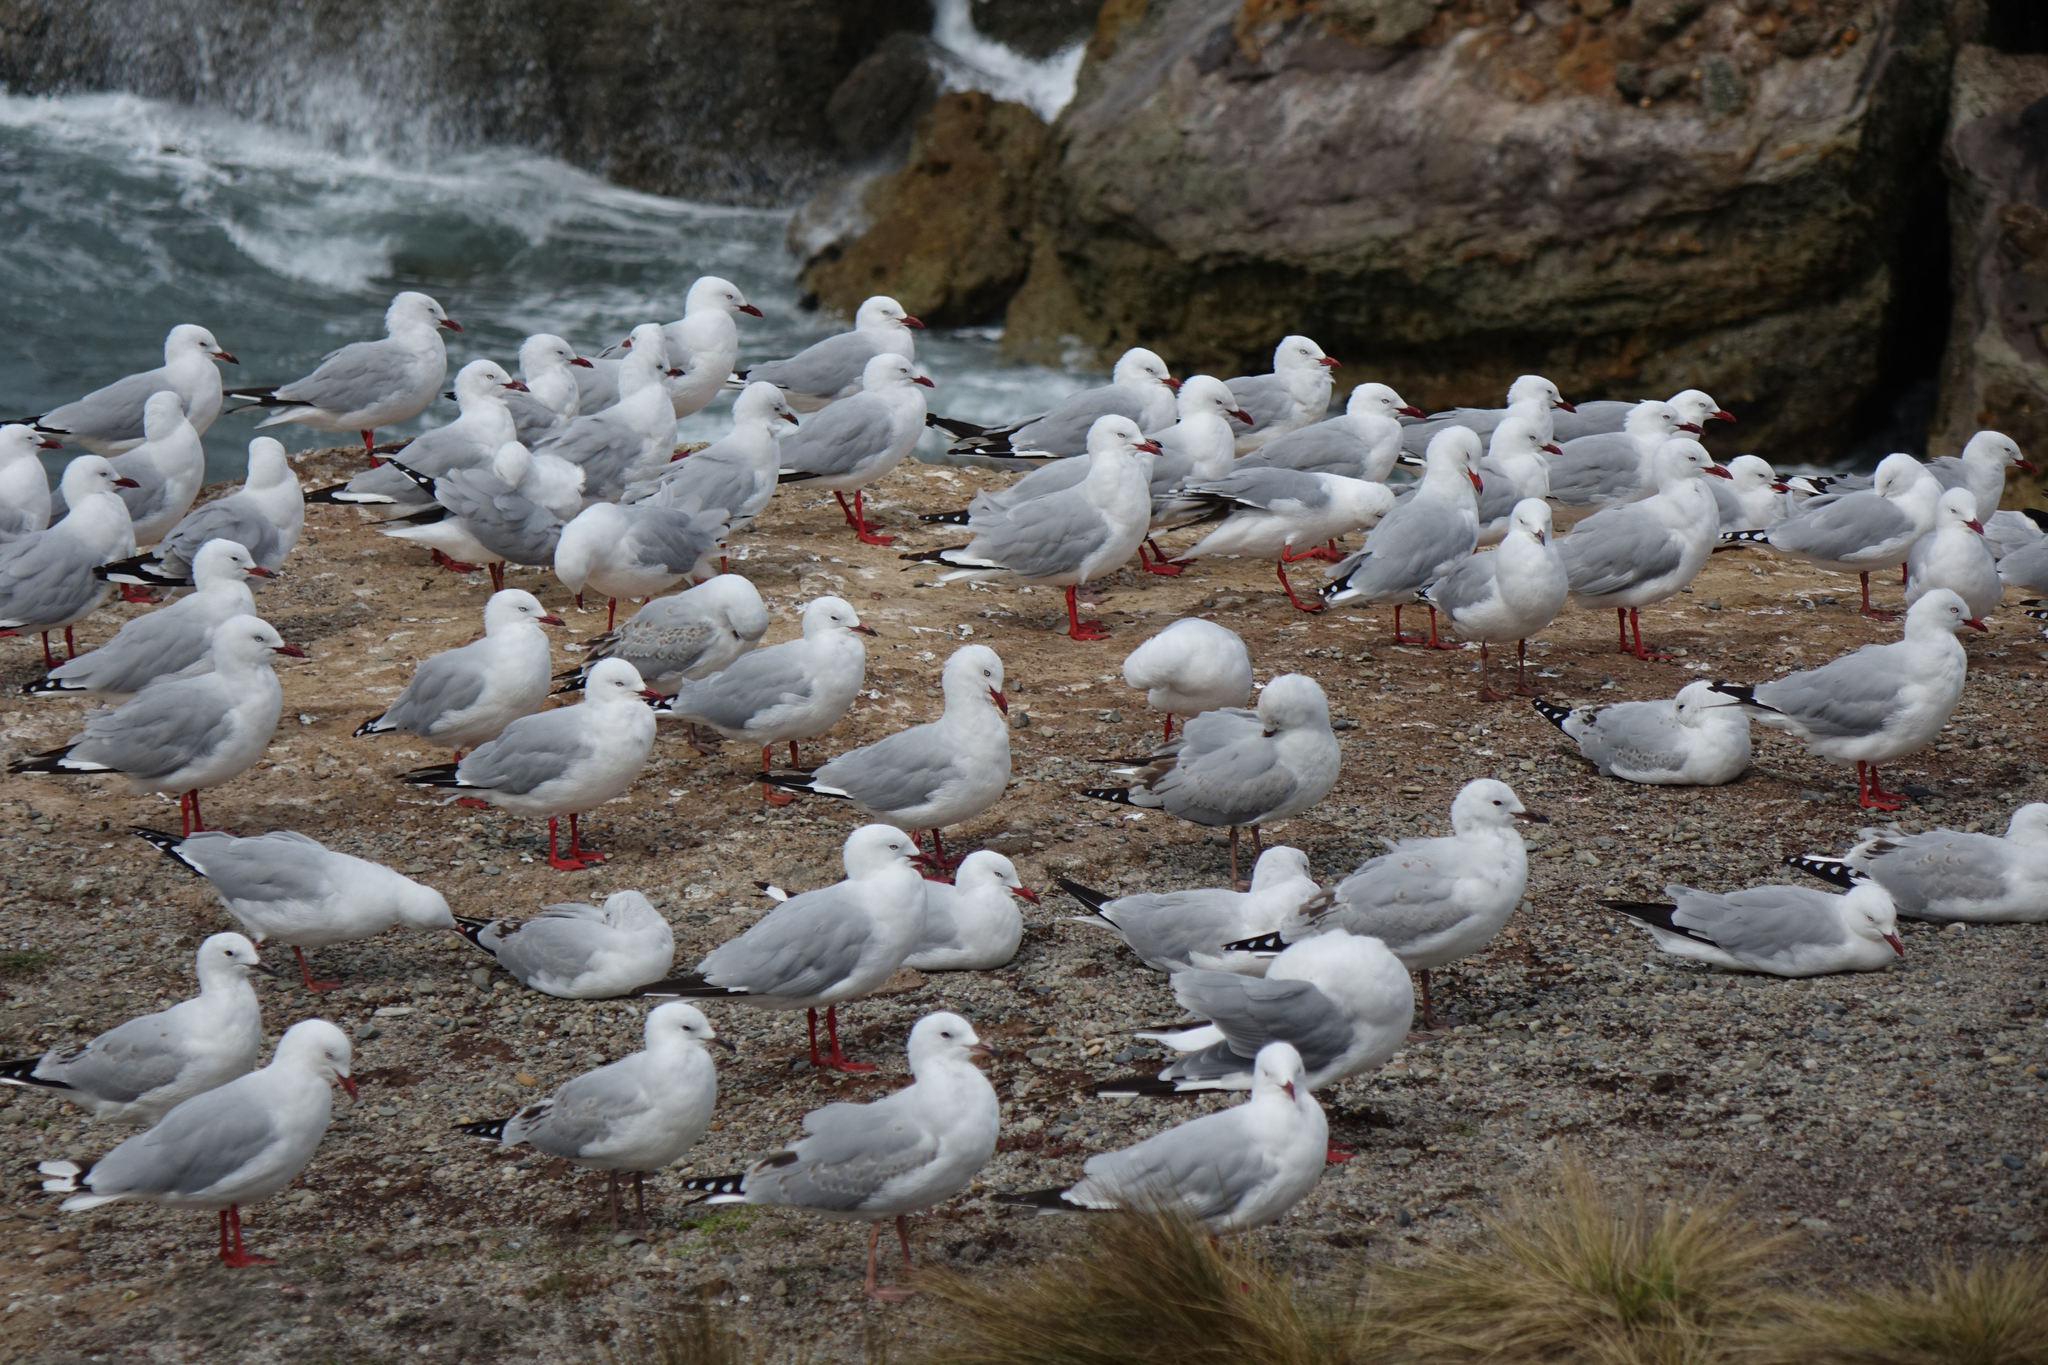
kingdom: Animalia
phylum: Chordata
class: Aves
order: Charadriiformes
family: Laridae
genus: Chroicocephalus
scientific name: Chroicocephalus novaehollandiae
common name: Silver gull
